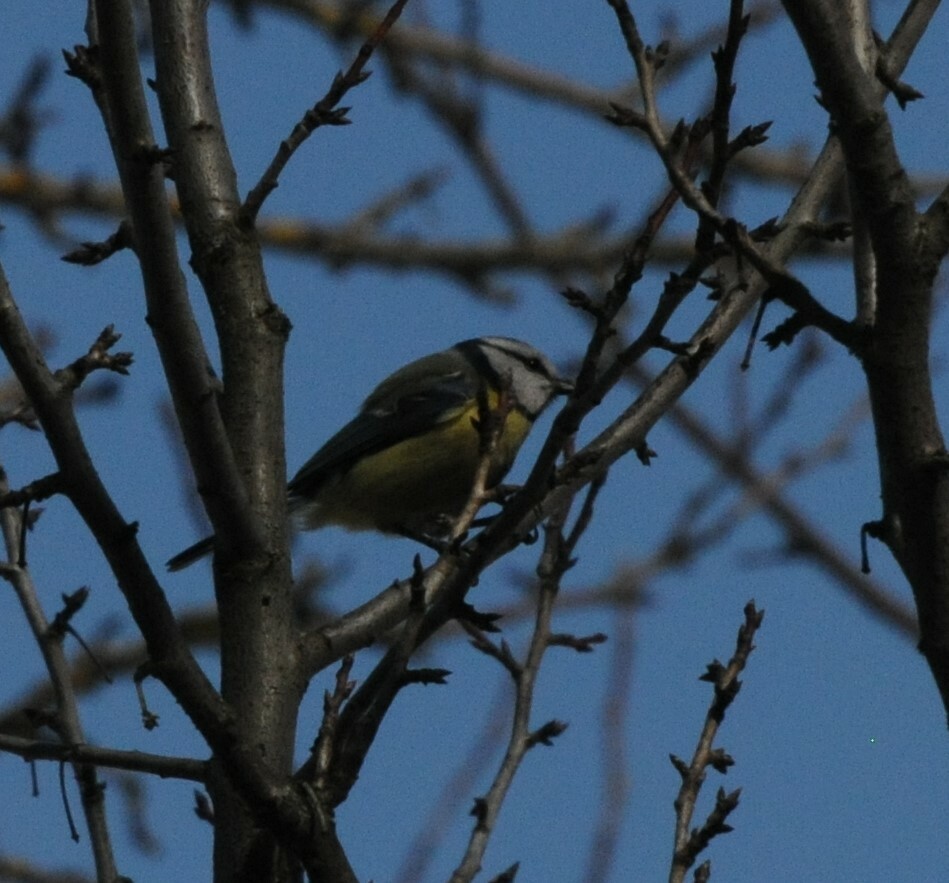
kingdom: Animalia
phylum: Chordata
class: Aves
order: Passeriformes
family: Paridae
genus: Cyanistes
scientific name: Cyanistes caeruleus
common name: Eurasian blue tit
